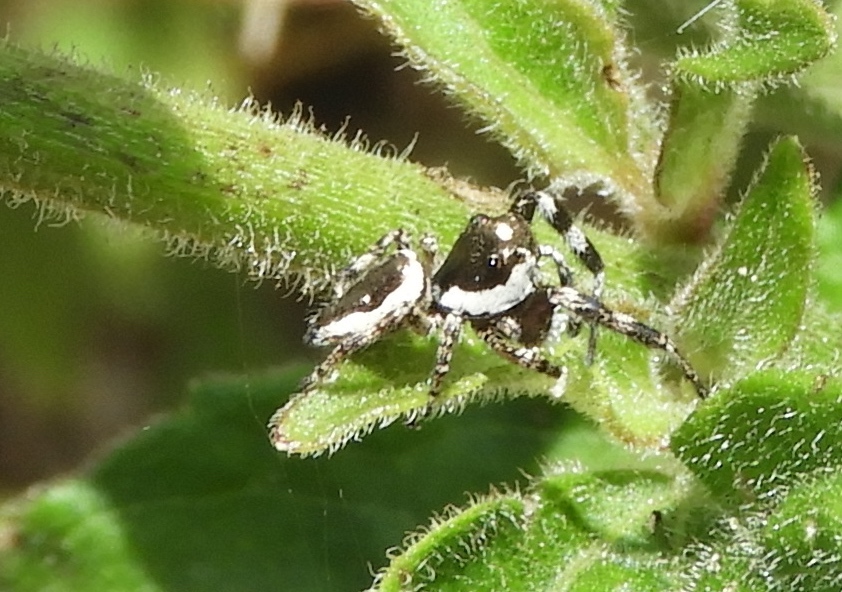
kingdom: Animalia
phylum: Arthropoda
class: Arachnida
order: Araneae
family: Salticidae
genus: Dendryphantes
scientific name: Dendryphantes zygoballoides
